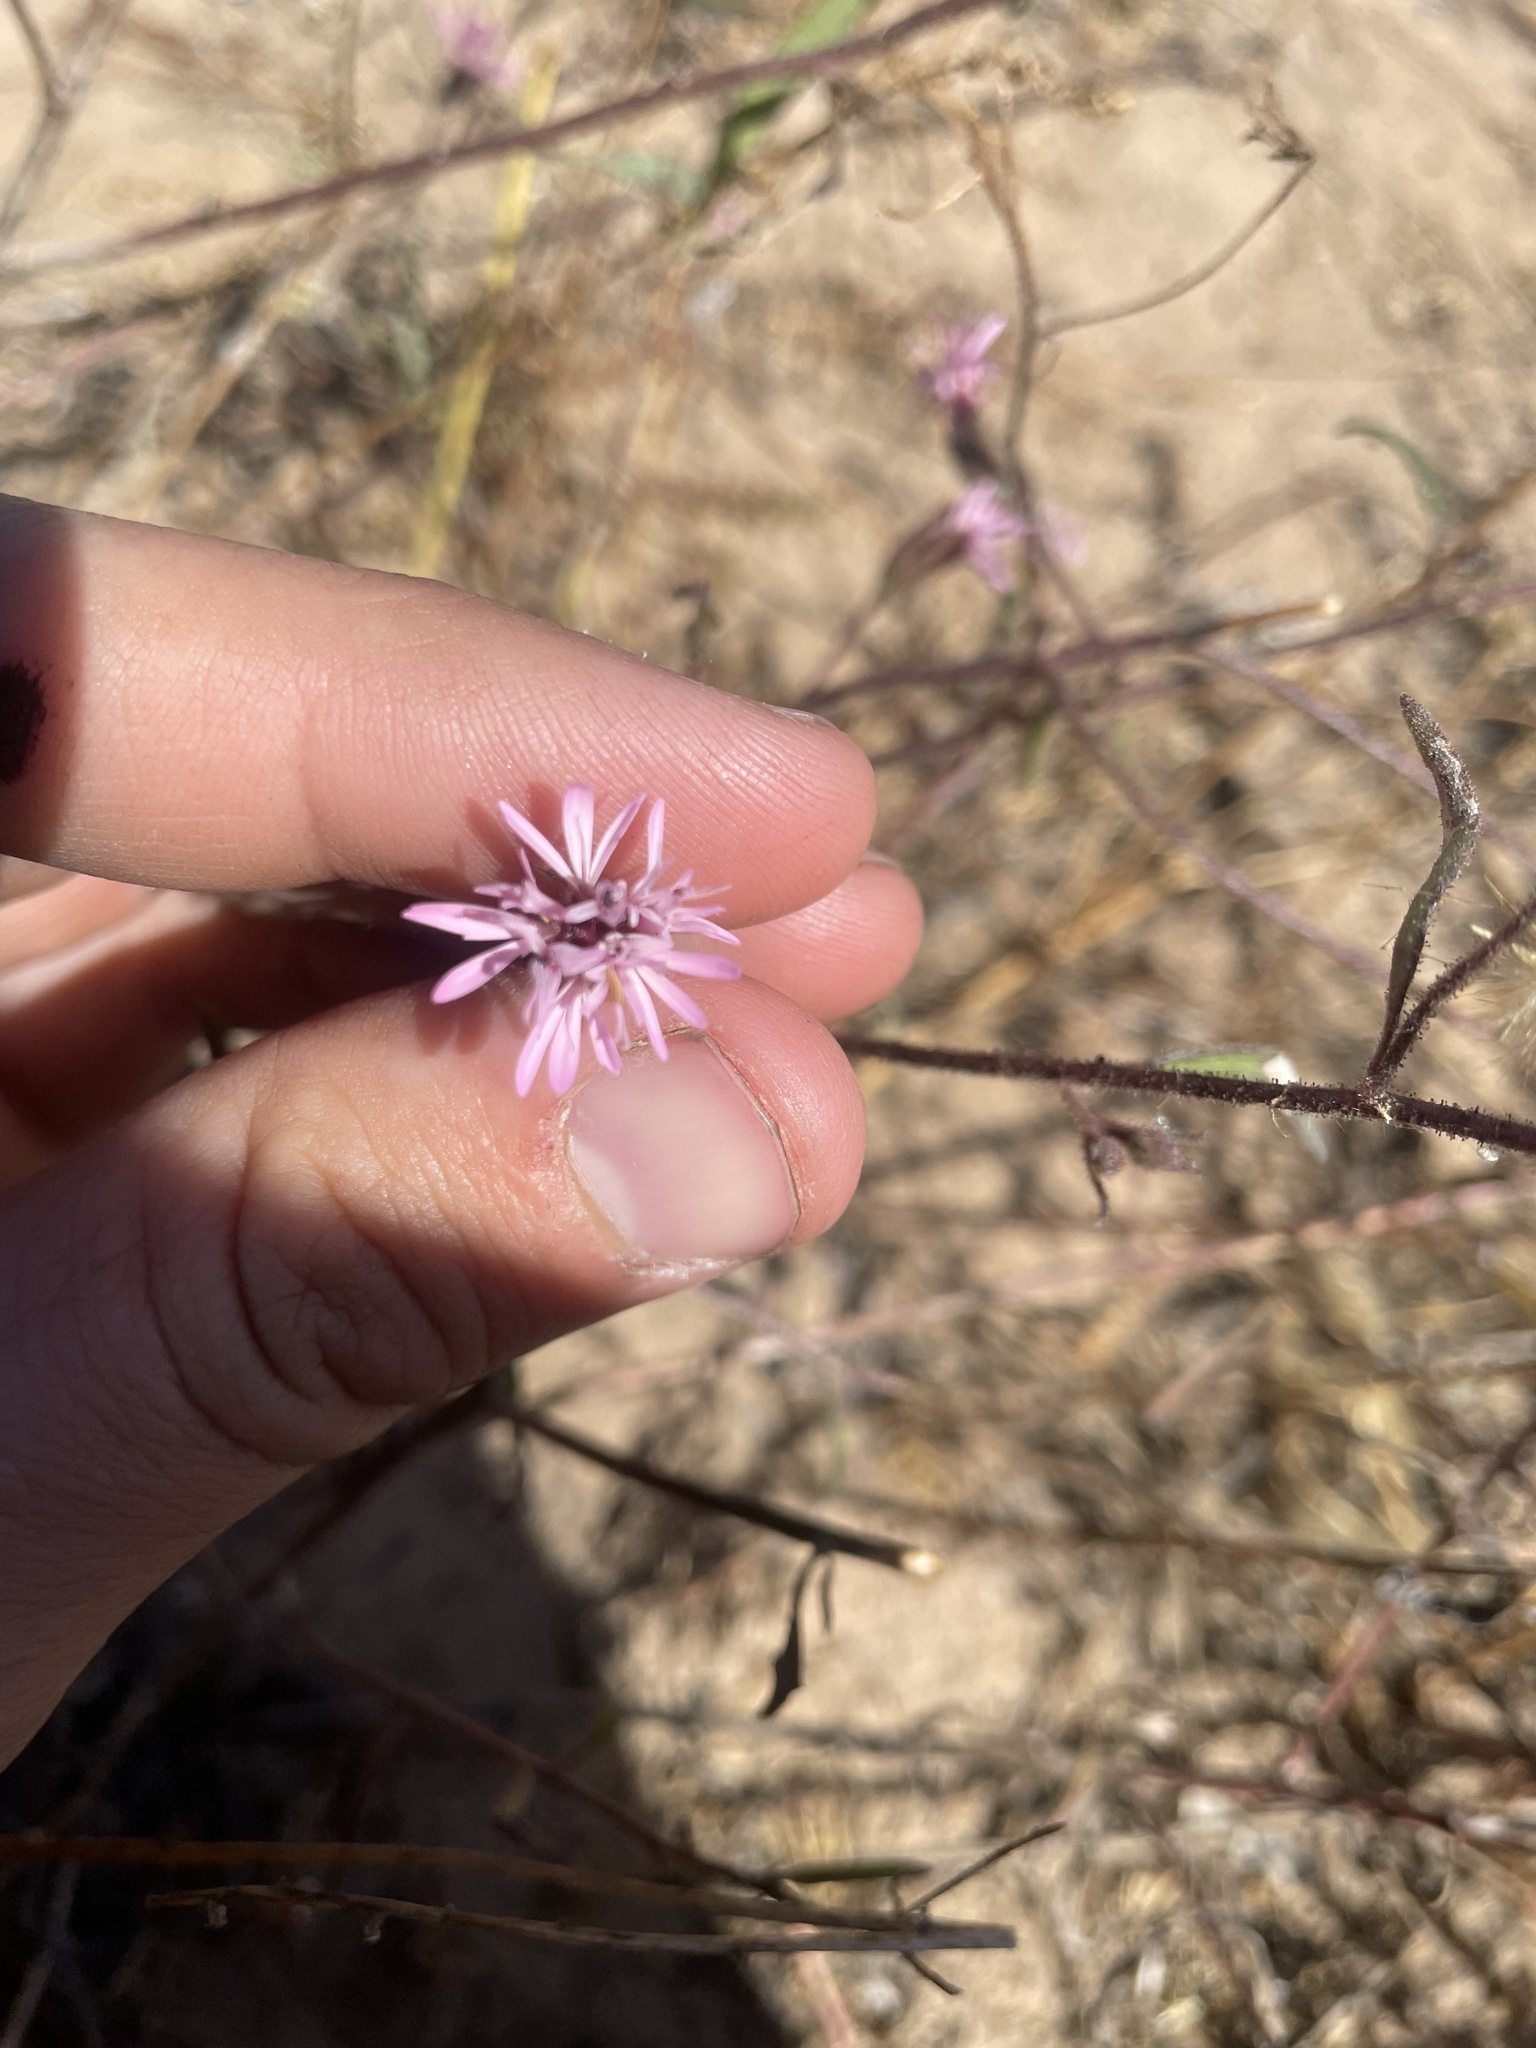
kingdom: Plantae
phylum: Tracheophyta
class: Magnoliopsida
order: Asterales
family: Asteraceae
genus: Palafoxia
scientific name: Palafoxia sphacelata
